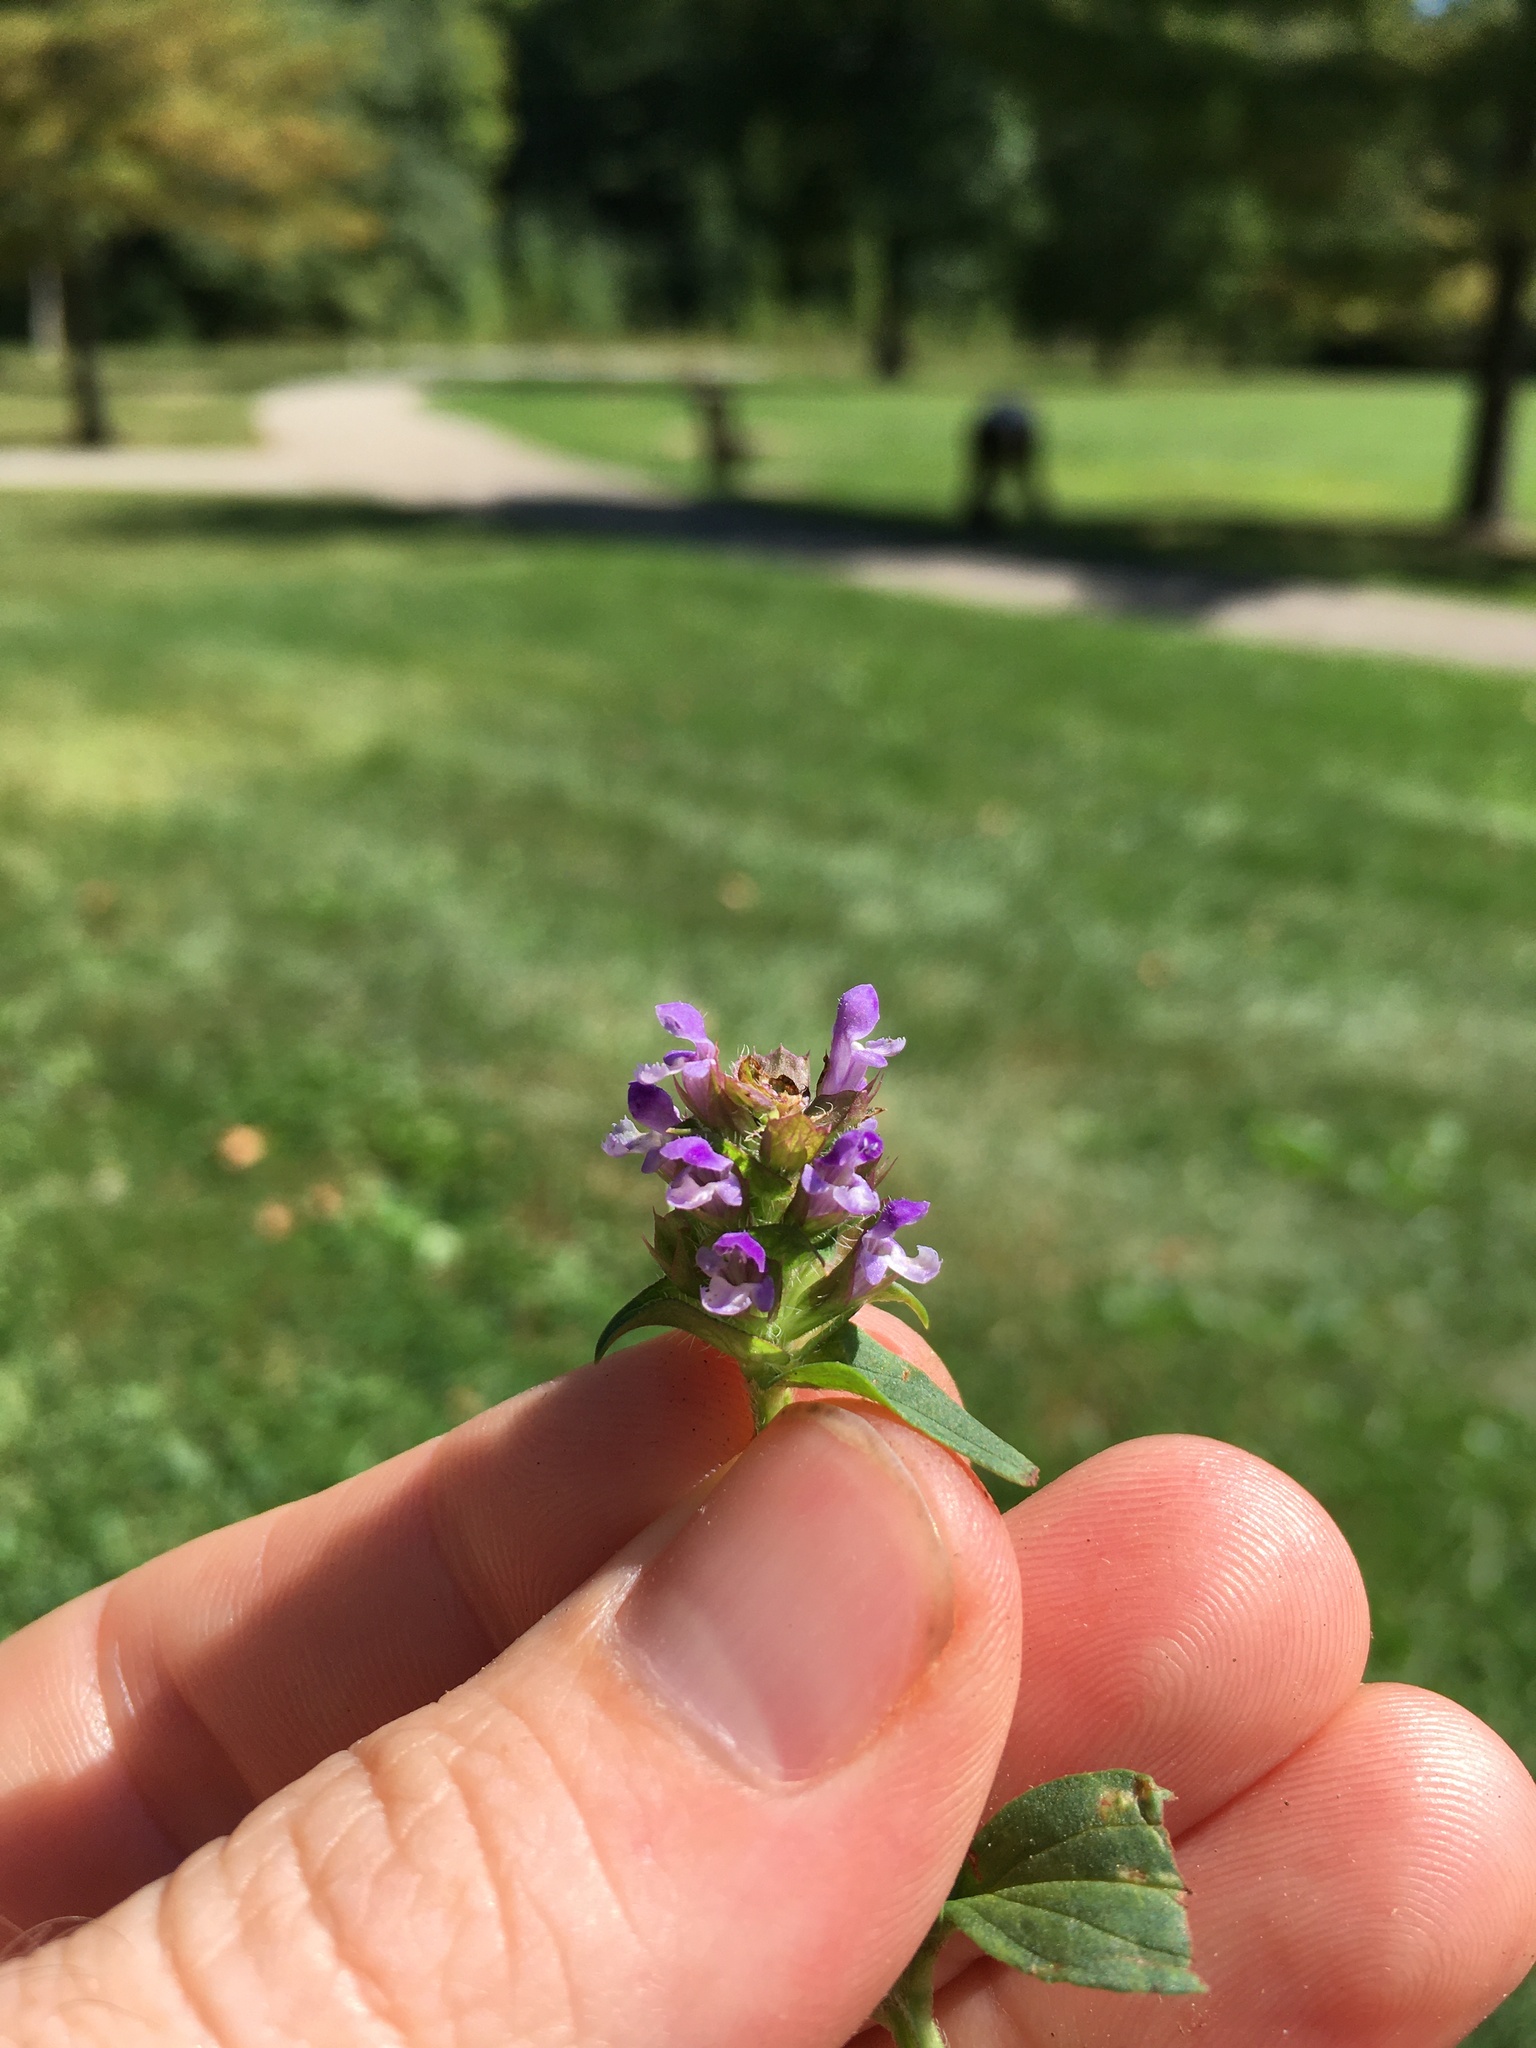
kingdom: Plantae
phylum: Tracheophyta
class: Magnoliopsida
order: Lamiales
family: Lamiaceae
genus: Prunella
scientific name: Prunella vulgaris
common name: Heal-all
